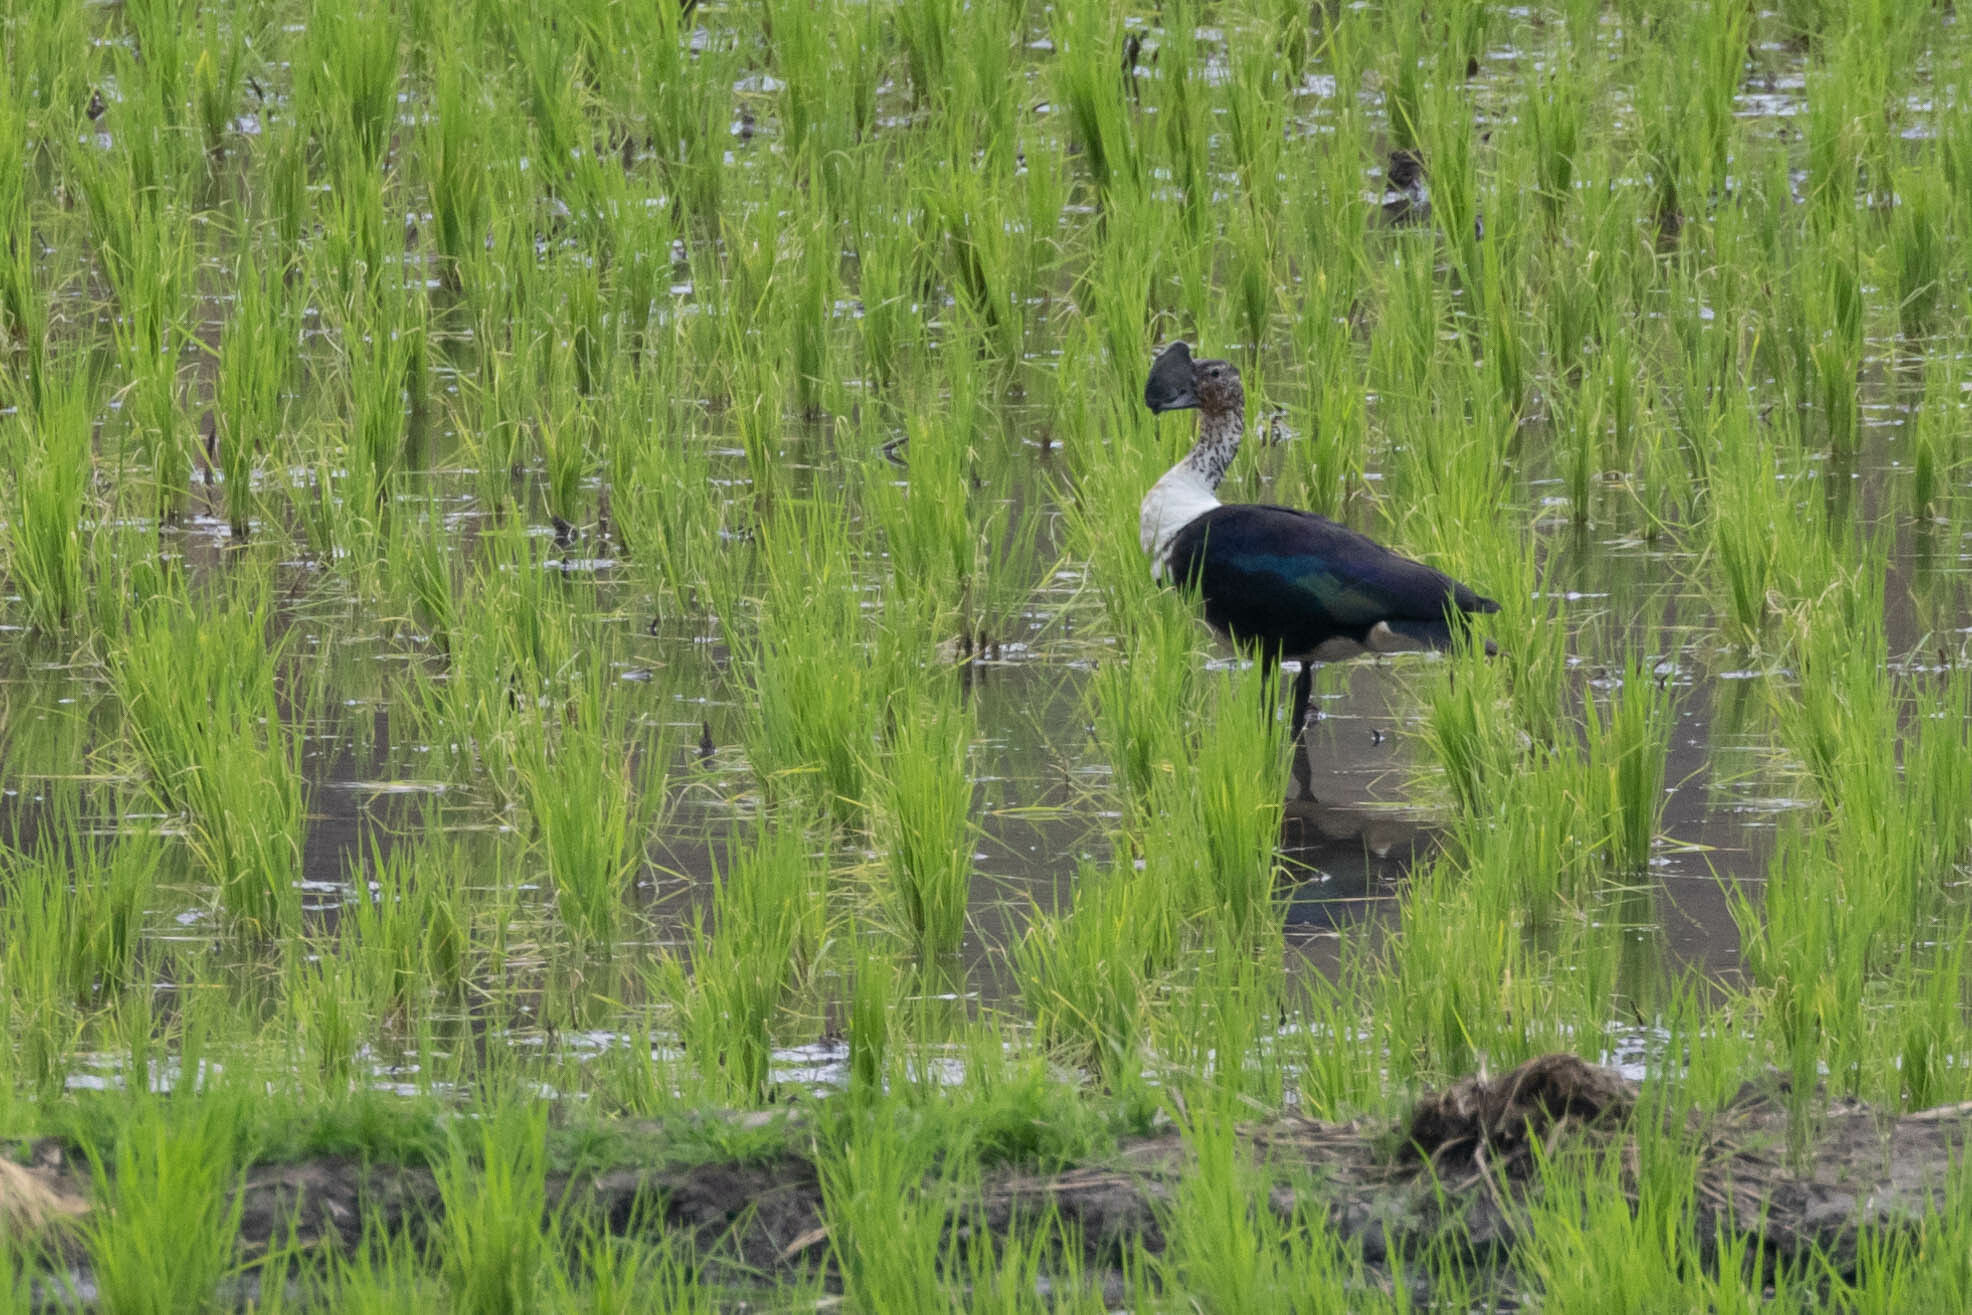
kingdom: Animalia
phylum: Chordata
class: Aves
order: Anseriformes
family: Anatidae
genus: Sarkidiornis
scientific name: Sarkidiornis sylvicola
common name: Comb duck
